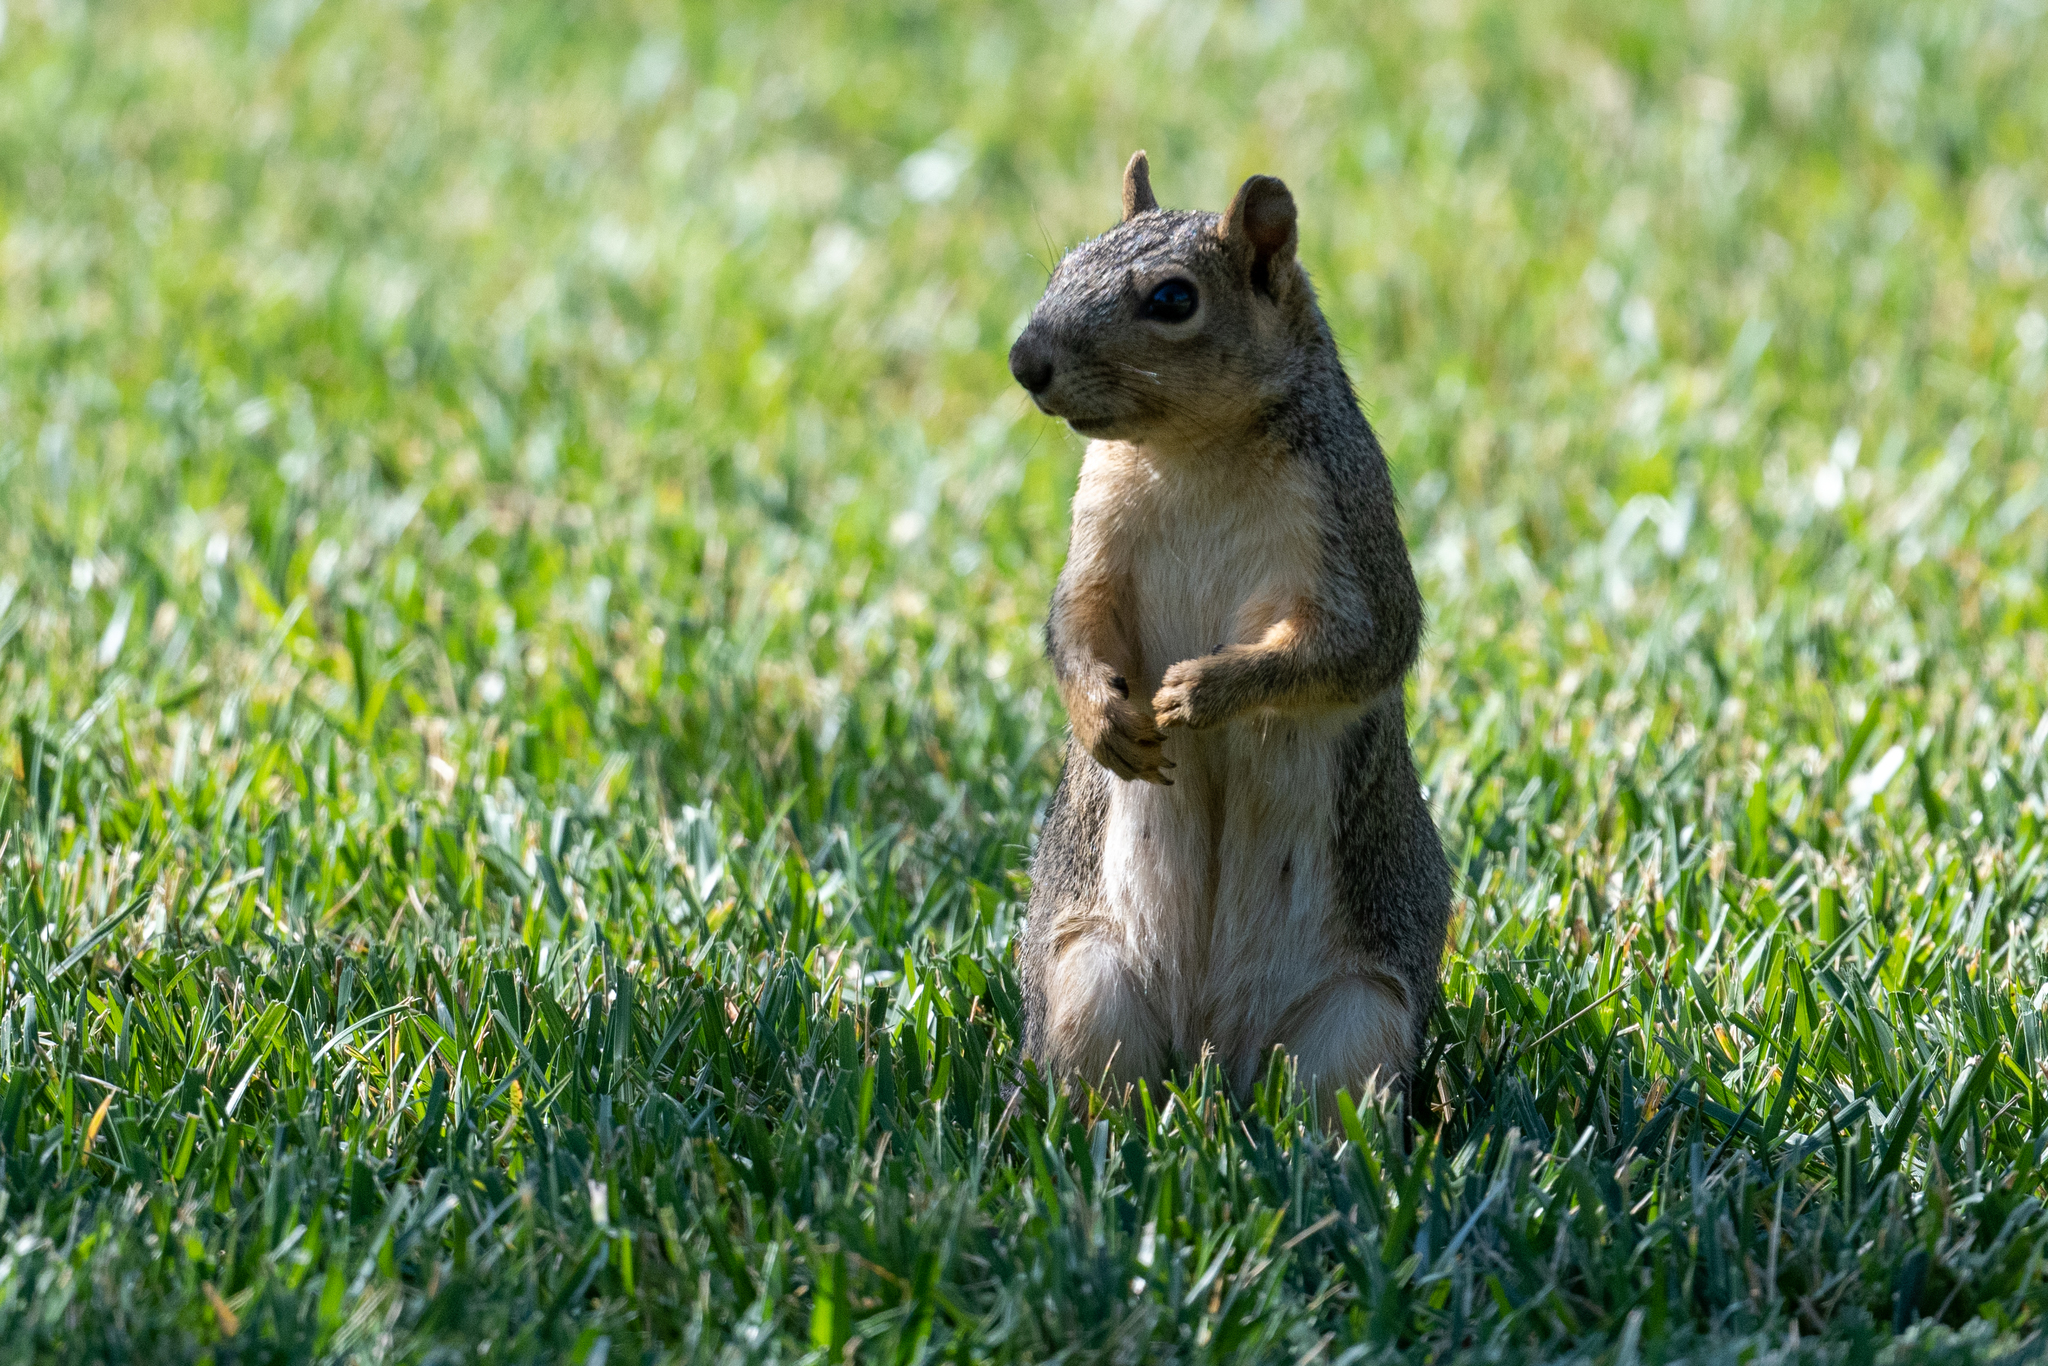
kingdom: Animalia
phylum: Chordata
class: Mammalia
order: Rodentia
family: Sciuridae
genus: Sciurus
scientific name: Sciurus niger
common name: Fox squirrel
